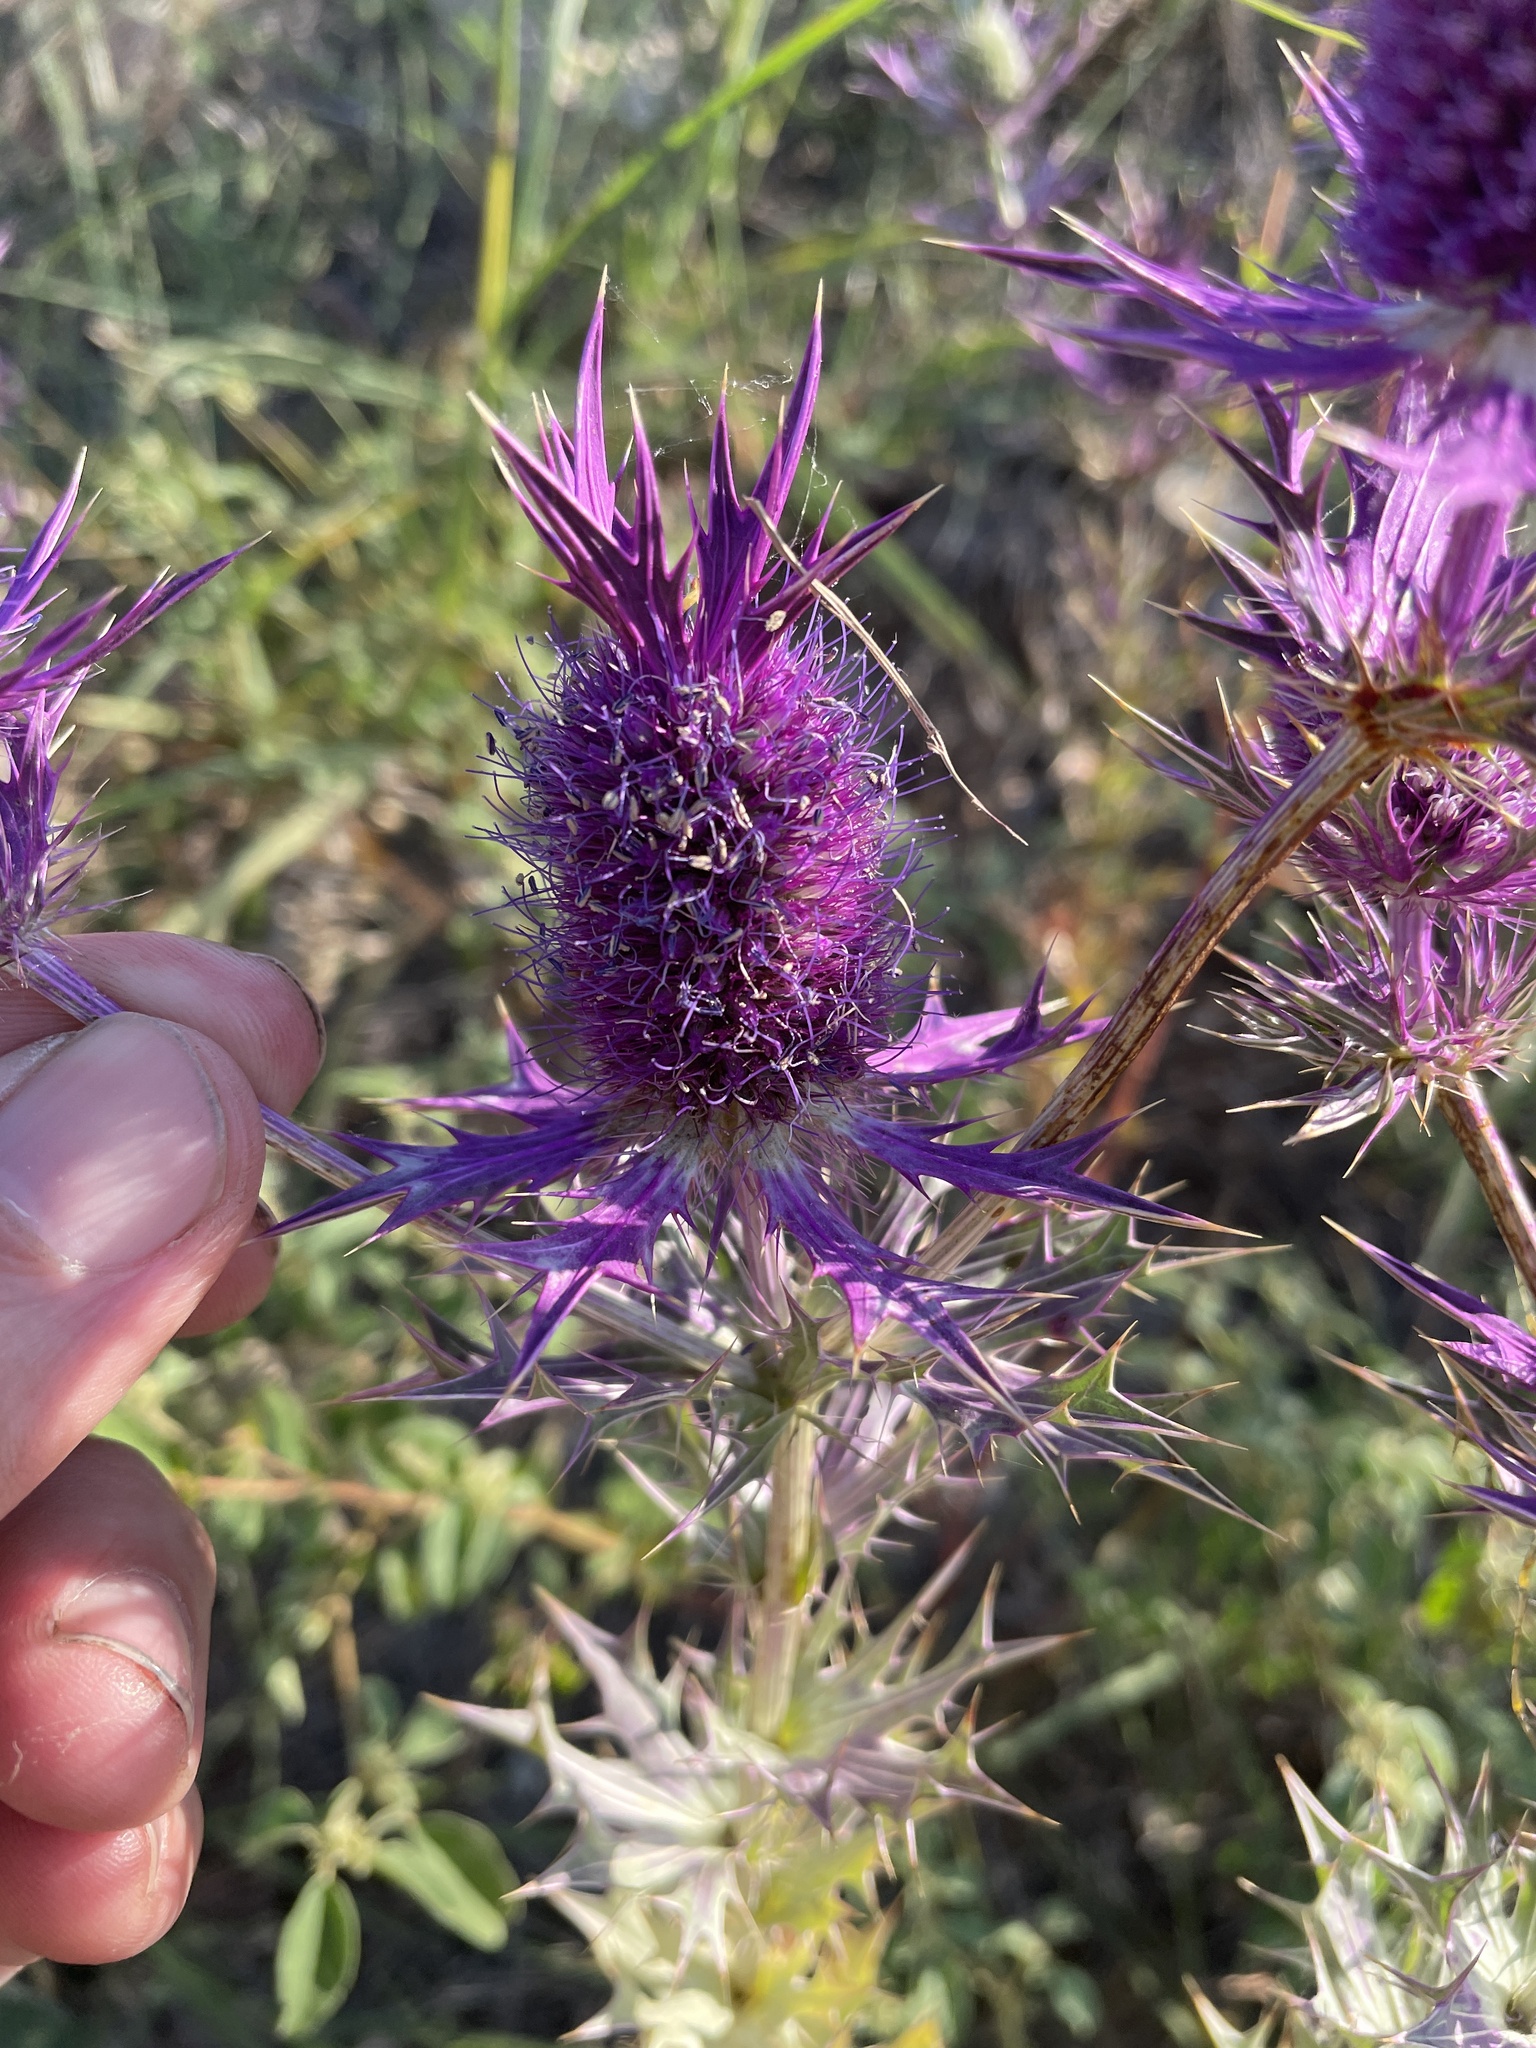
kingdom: Plantae
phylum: Tracheophyta
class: Magnoliopsida
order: Apiales
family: Apiaceae
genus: Eryngium
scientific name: Eryngium leavenworthii
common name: Leavenworth's eryngo
